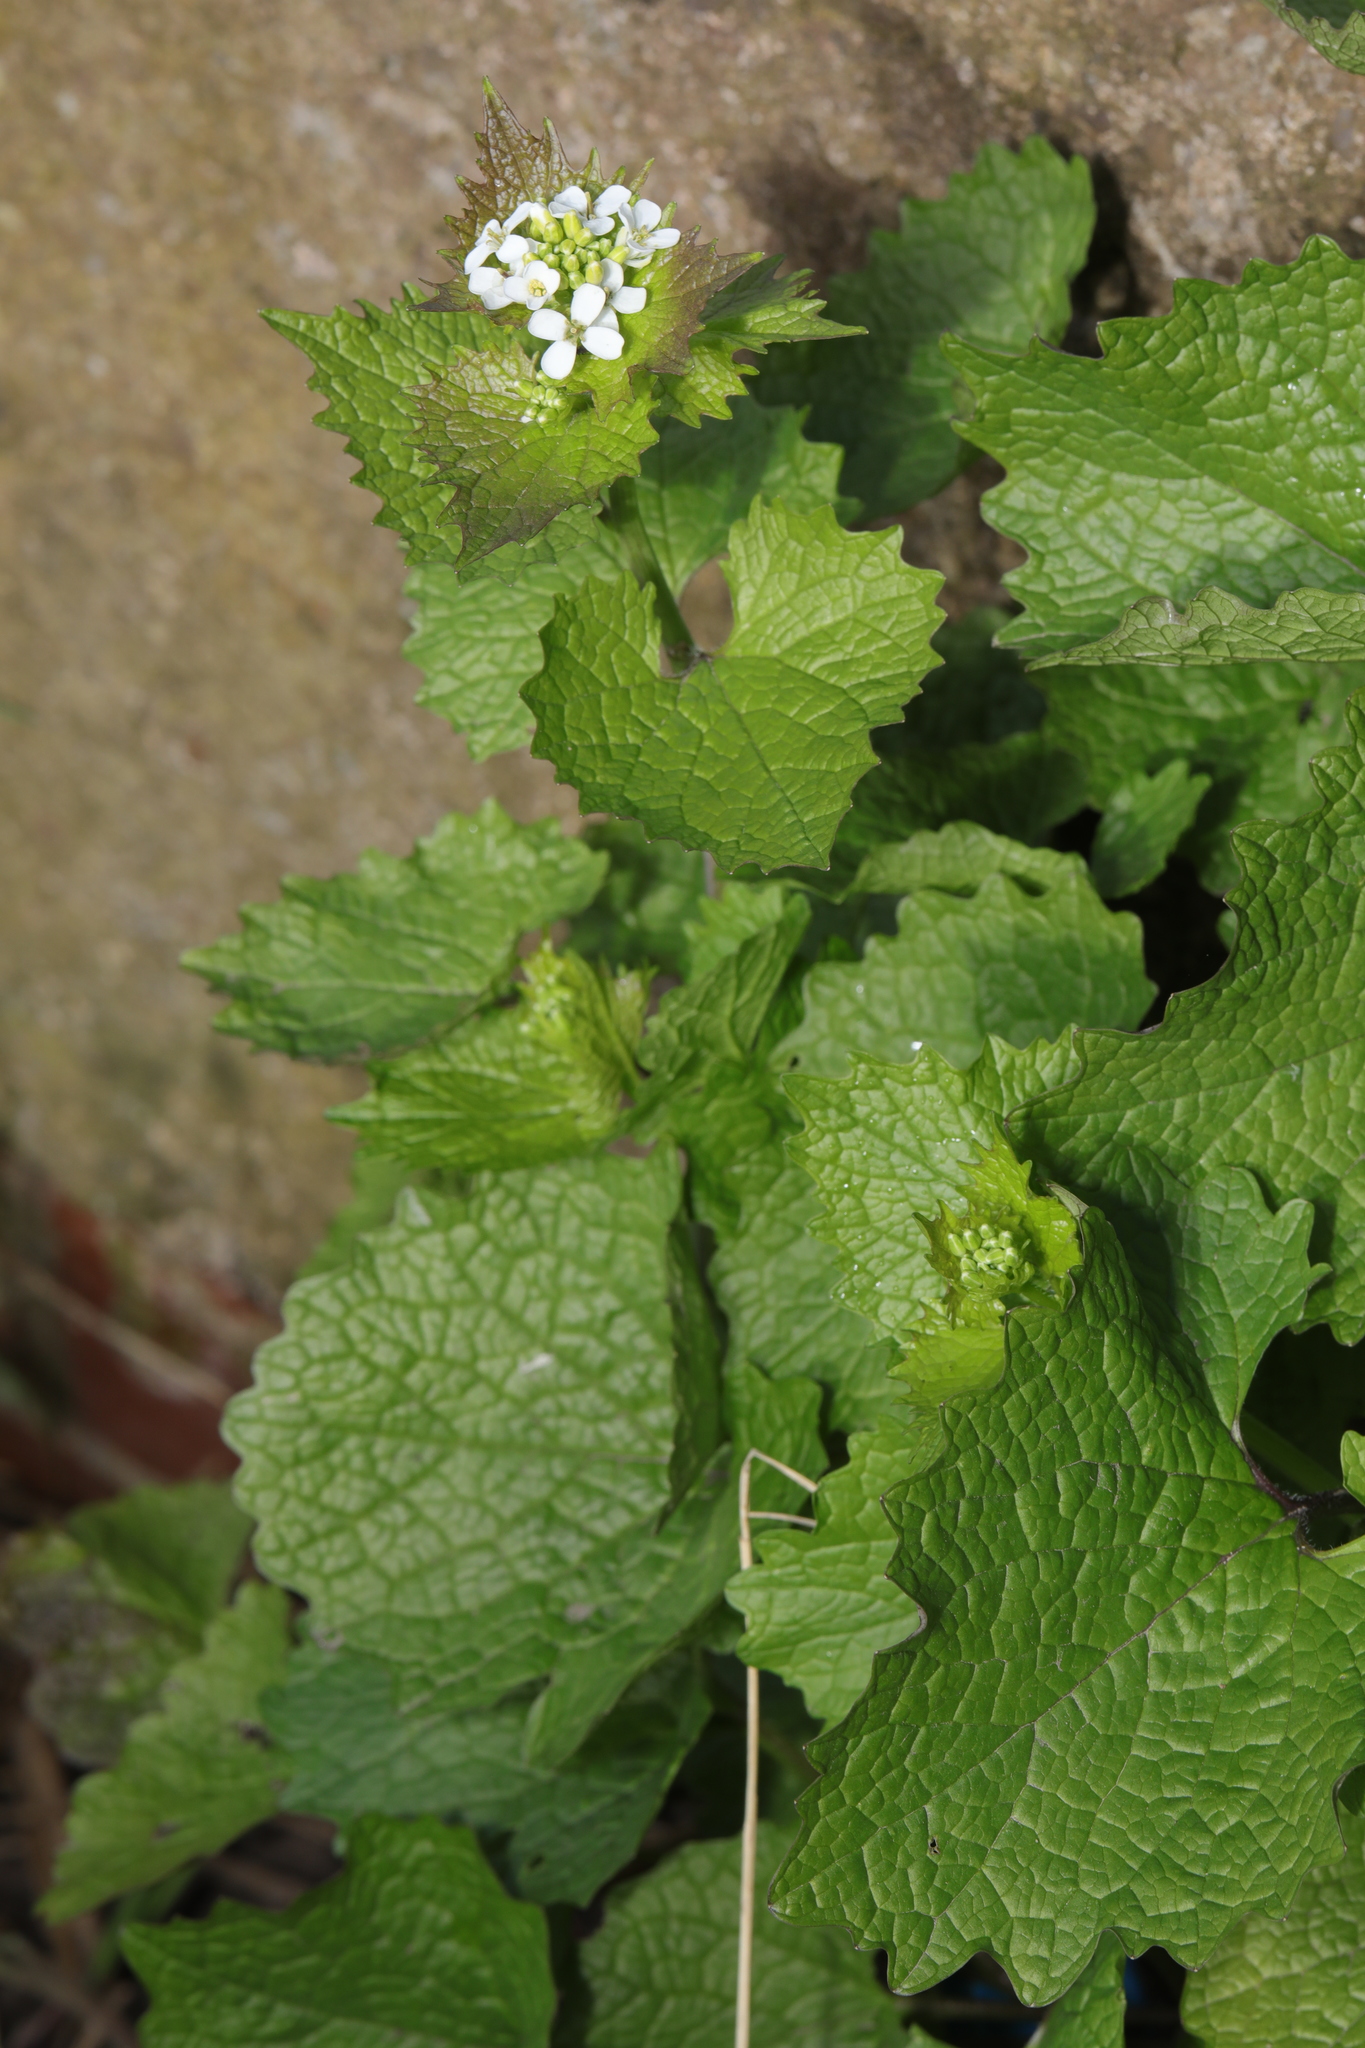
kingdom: Plantae
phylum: Tracheophyta
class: Magnoliopsida
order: Brassicales
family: Brassicaceae
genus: Alliaria
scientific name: Alliaria petiolata
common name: Garlic mustard
